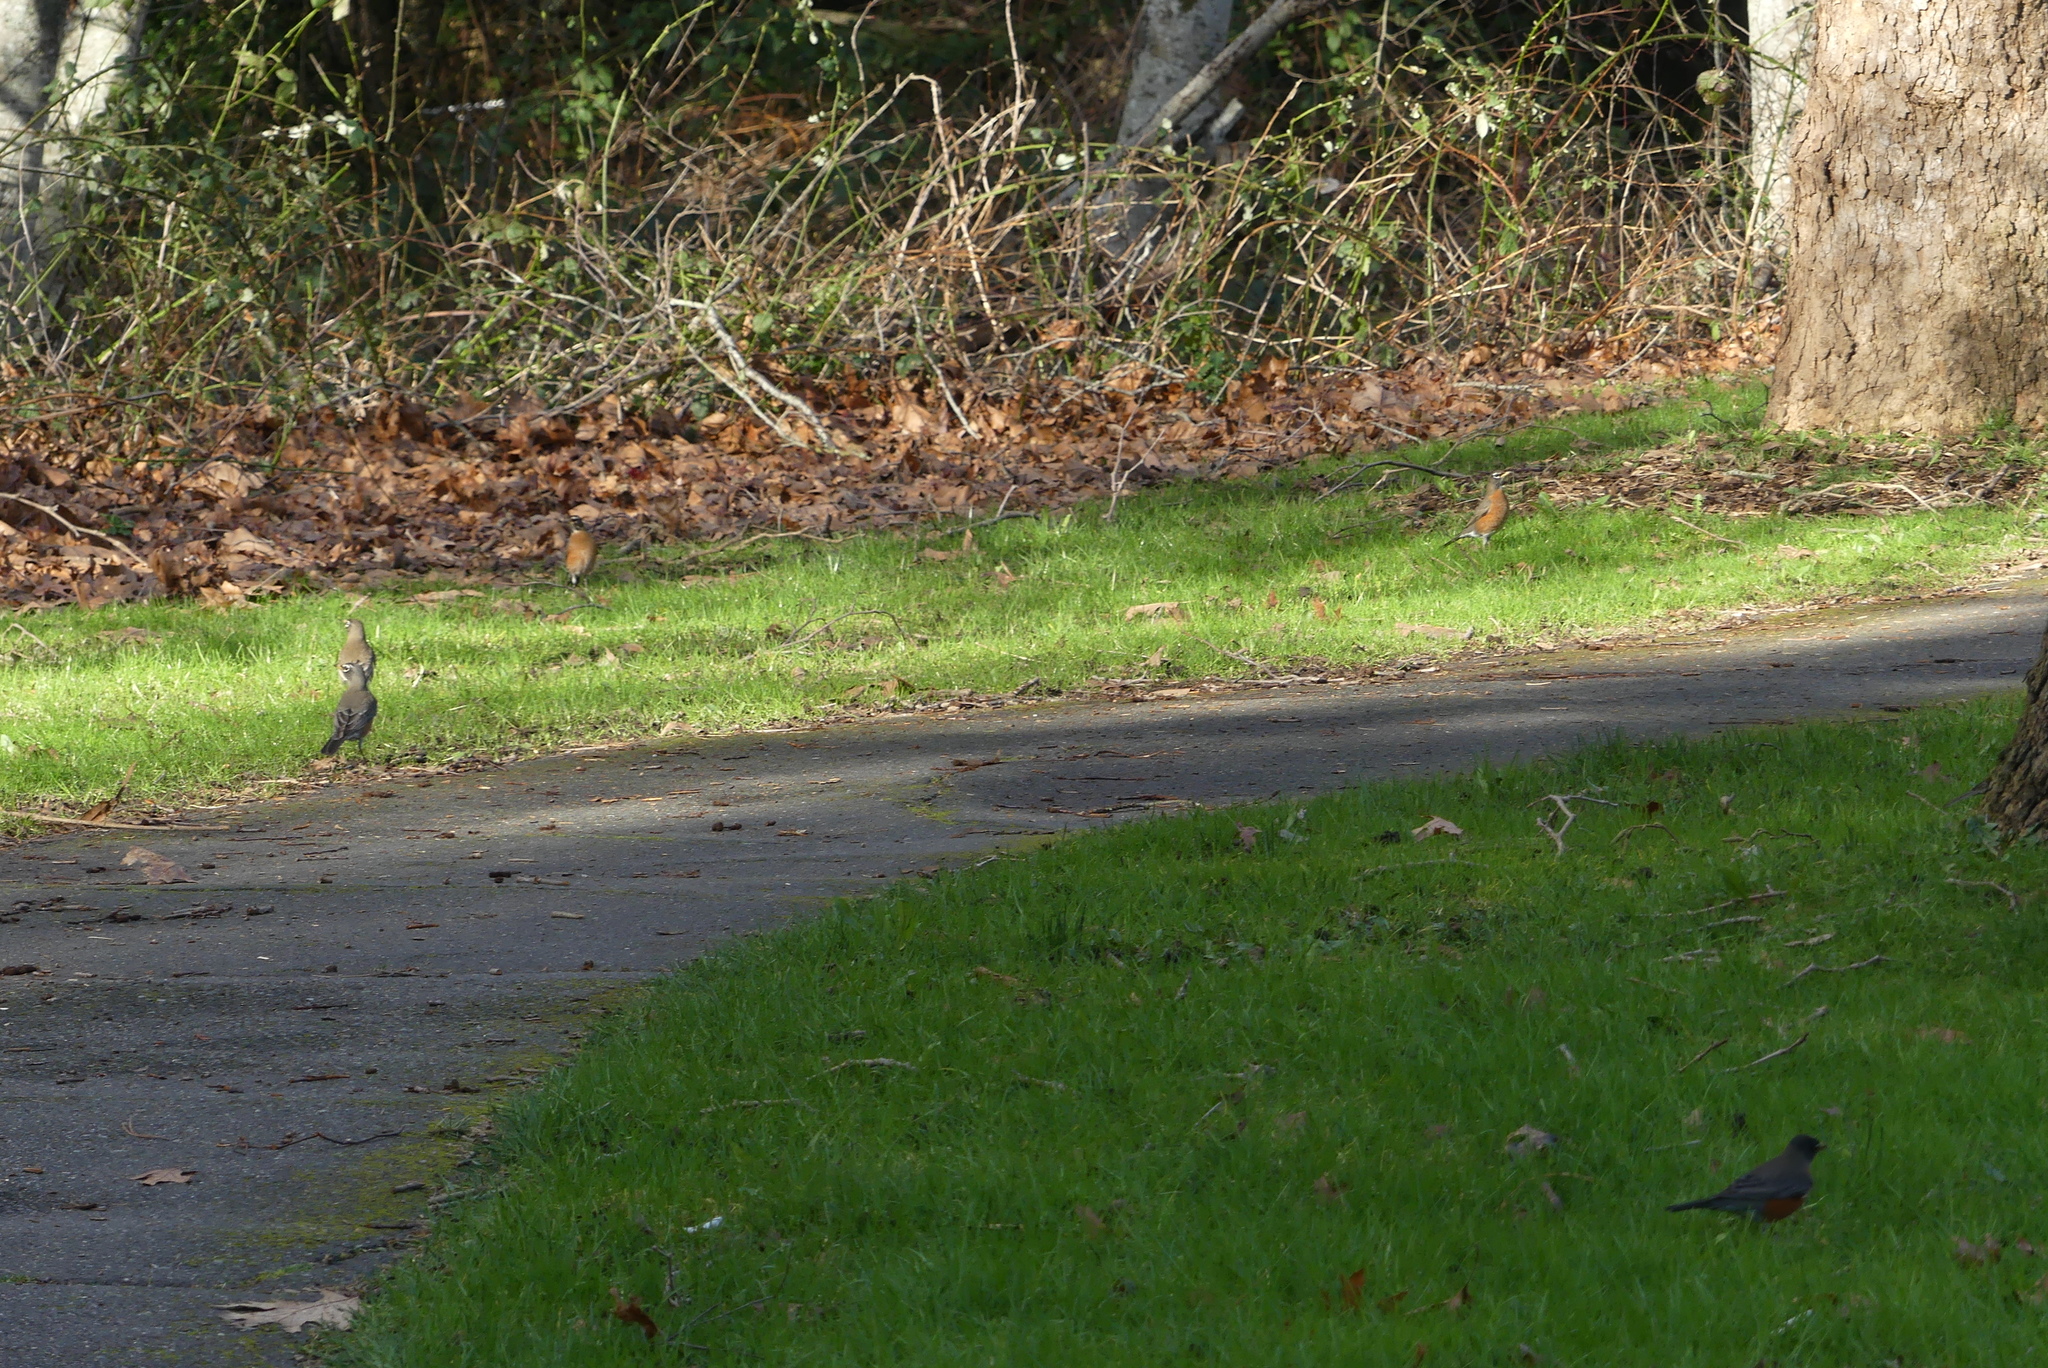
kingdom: Animalia
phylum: Chordata
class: Aves
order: Passeriformes
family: Turdidae
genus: Turdus
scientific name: Turdus migratorius
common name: American robin
